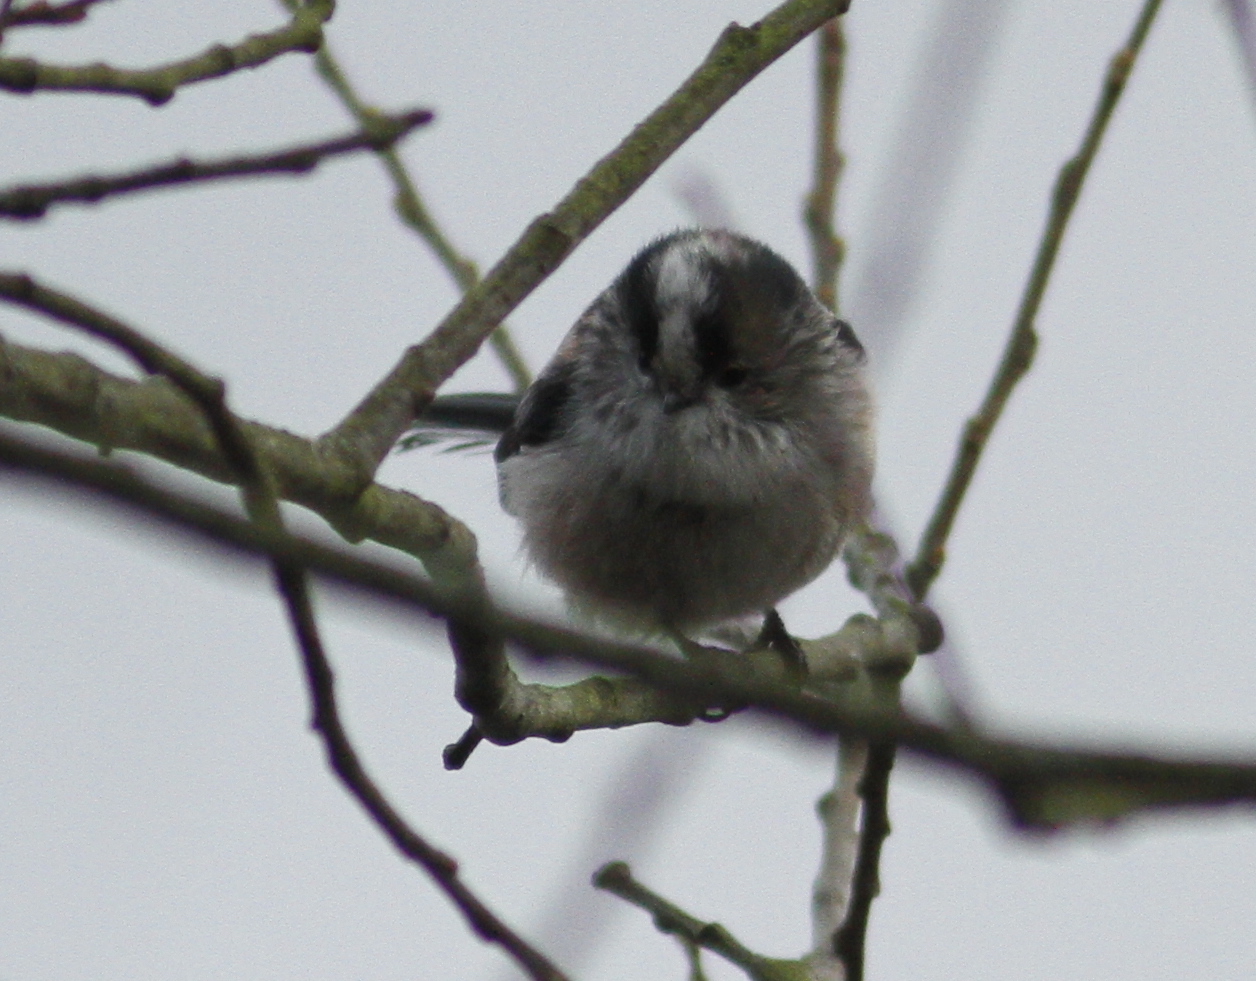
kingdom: Animalia
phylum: Chordata
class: Aves
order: Passeriformes
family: Aegithalidae
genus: Aegithalos
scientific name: Aegithalos caudatus
